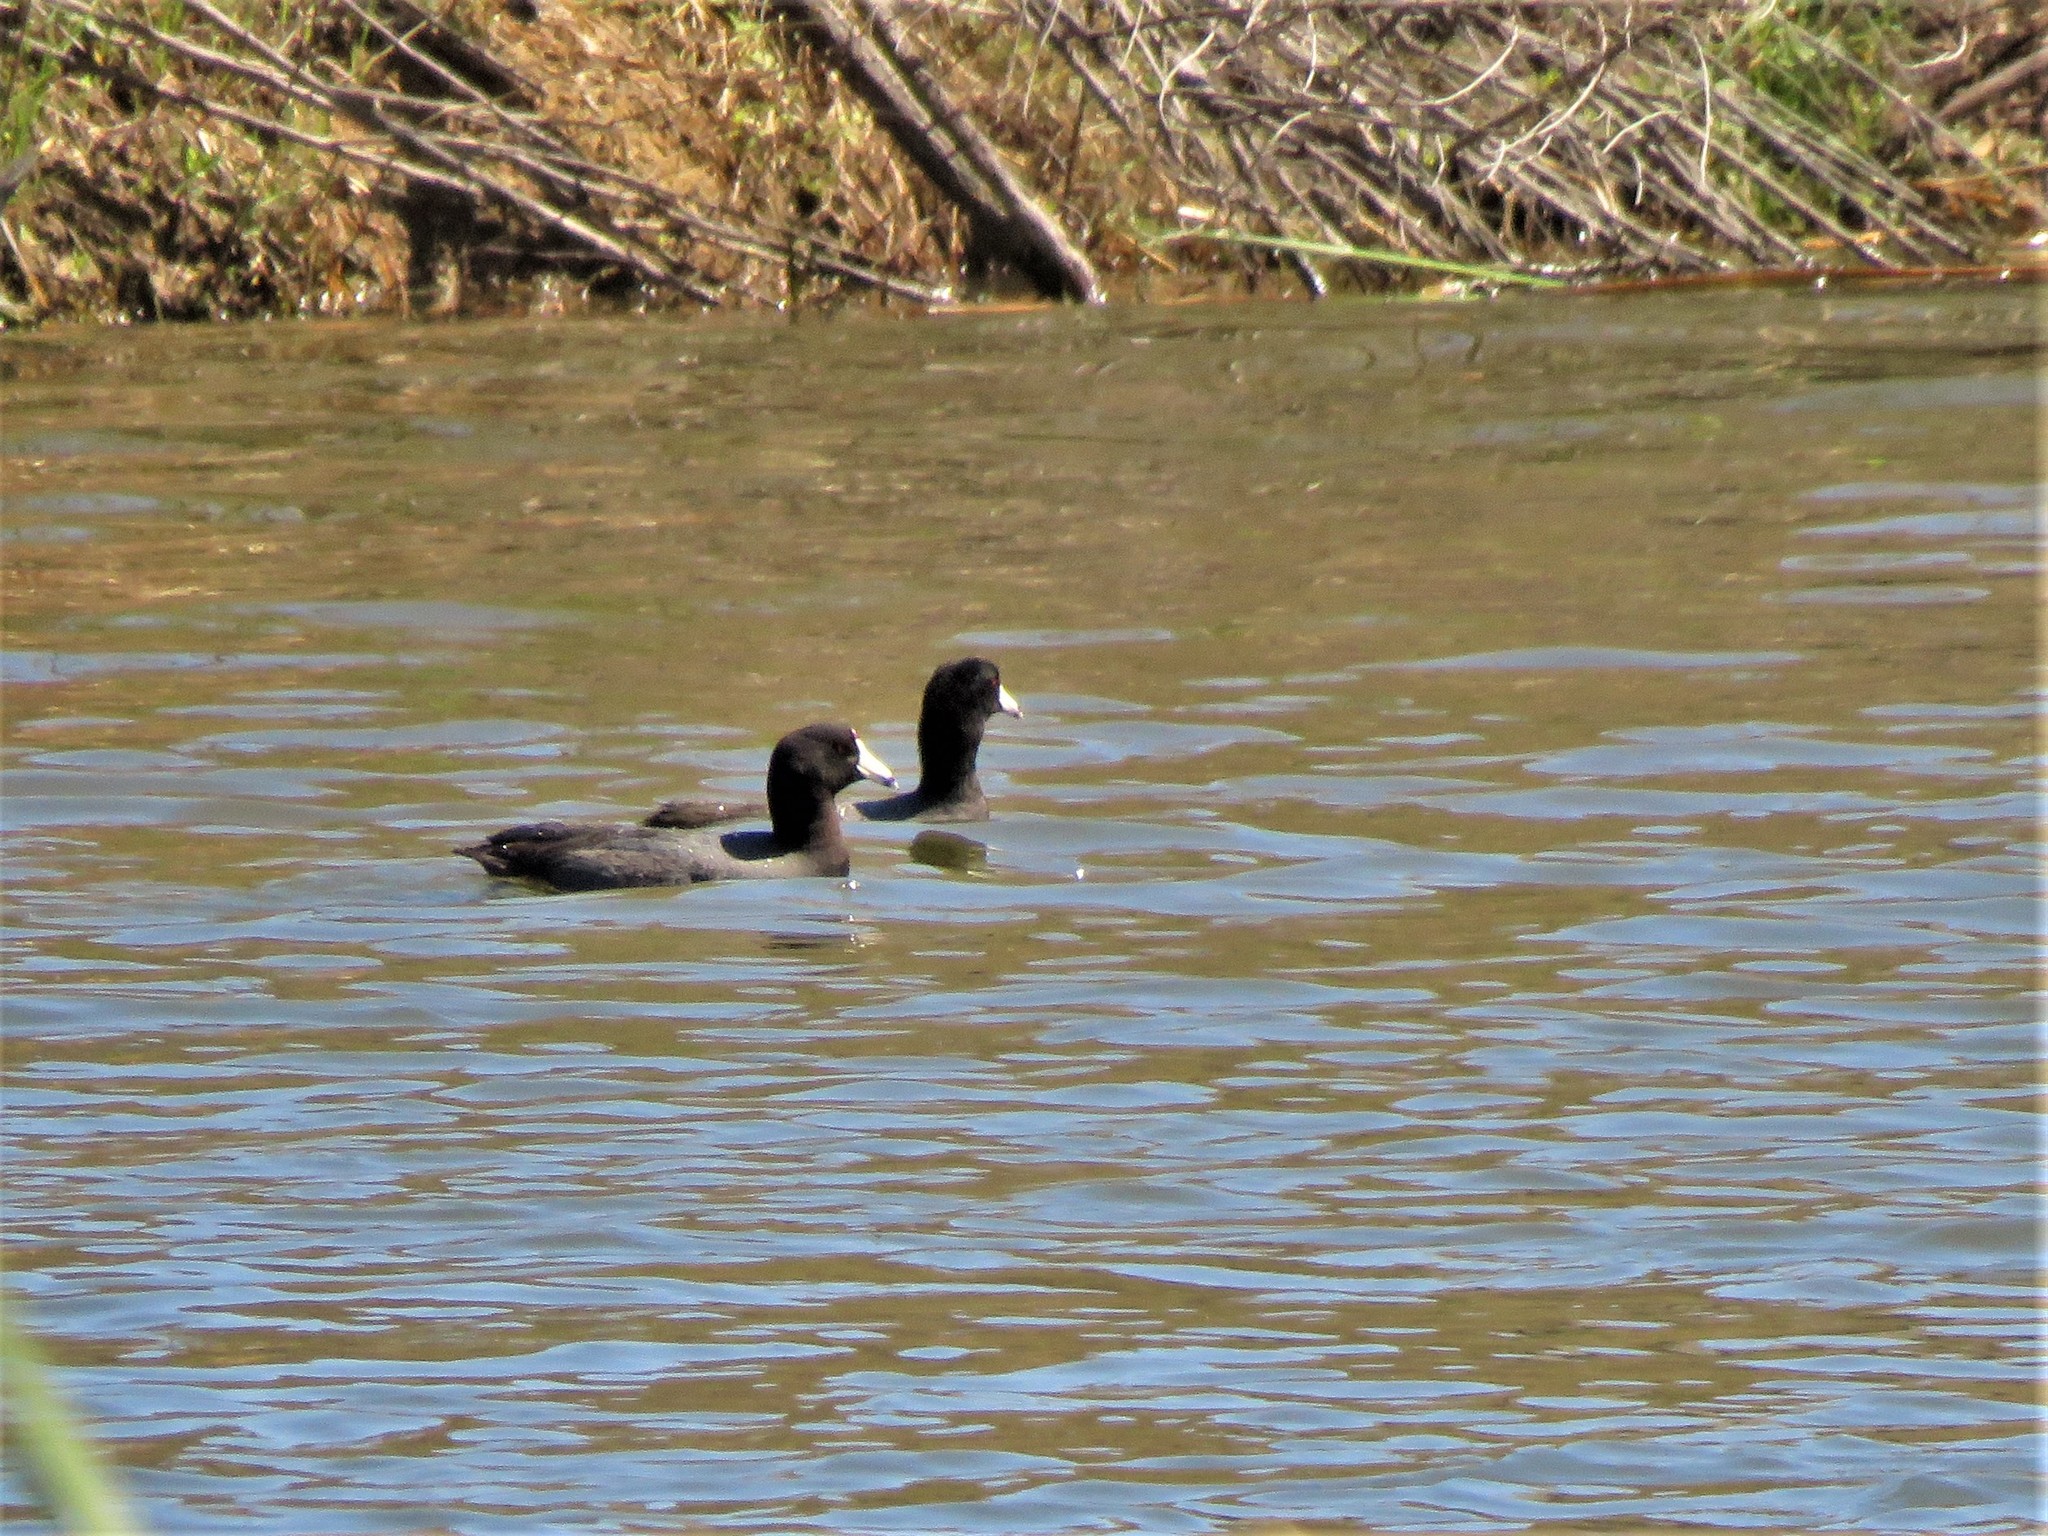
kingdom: Animalia
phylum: Chordata
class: Aves
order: Gruiformes
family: Rallidae
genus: Fulica
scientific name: Fulica americana
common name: American coot
